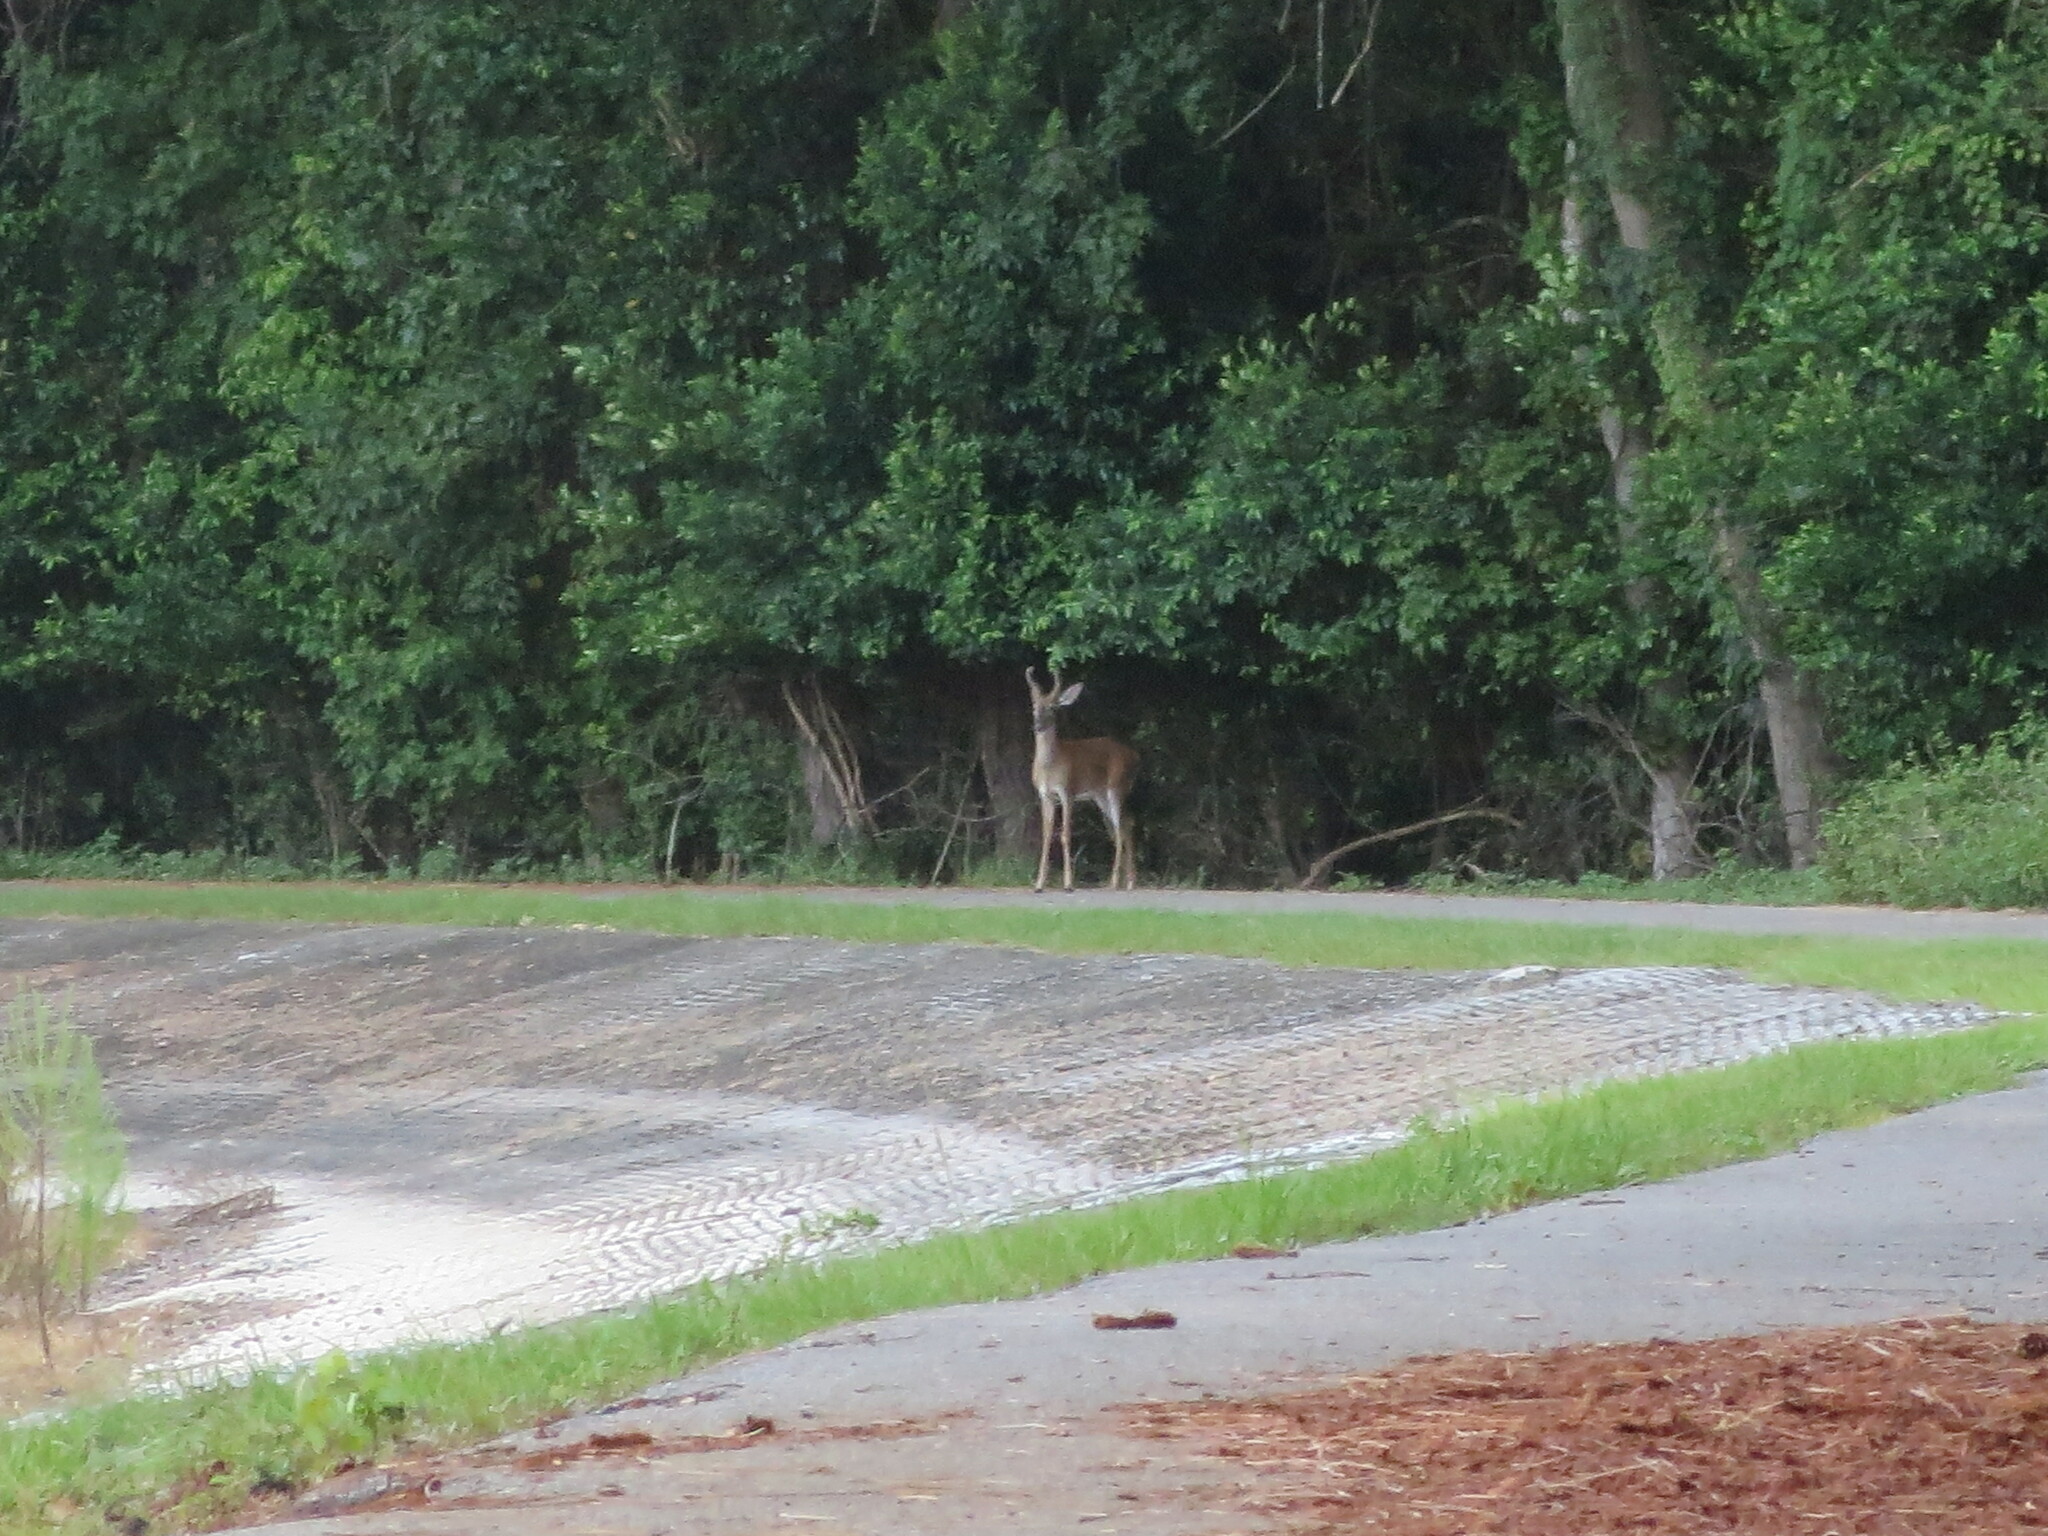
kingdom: Animalia
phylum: Chordata
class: Mammalia
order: Artiodactyla
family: Cervidae
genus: Odocoileus
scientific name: Odocoileus virginianus
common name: White-tailed deer
